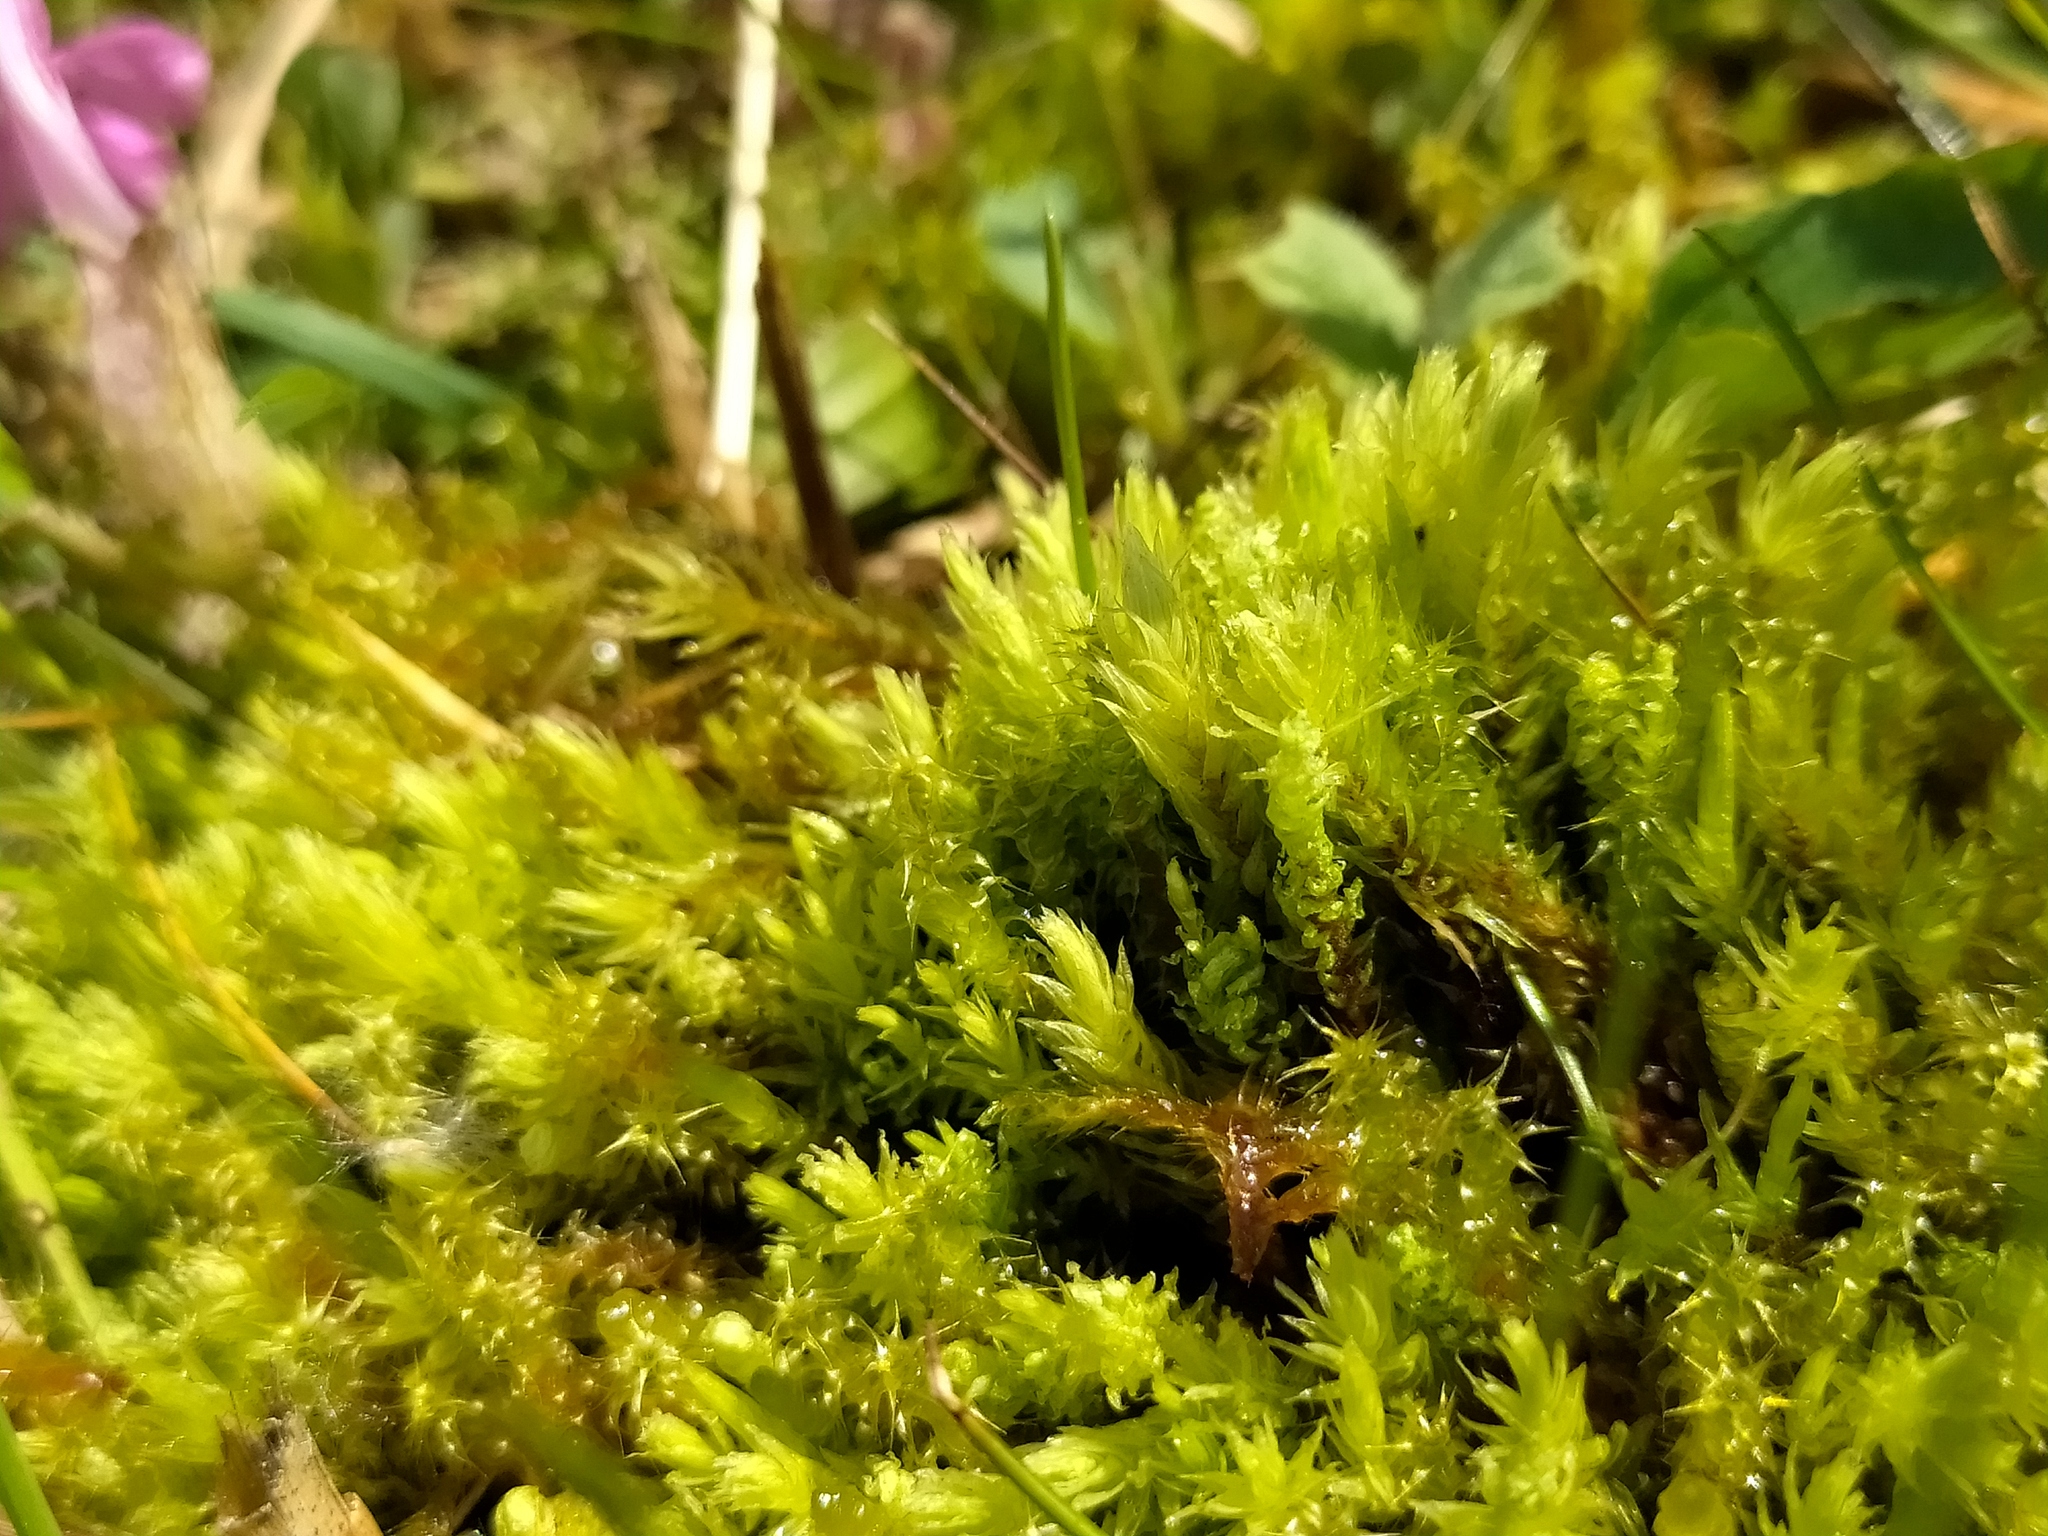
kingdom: Plantae
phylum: Bryophyta
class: Bryopsida
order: Aulacomniales
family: Aulacomniaceae
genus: Aulacomnium
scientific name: Aulacomnium palustre
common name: Bog groove-moss
